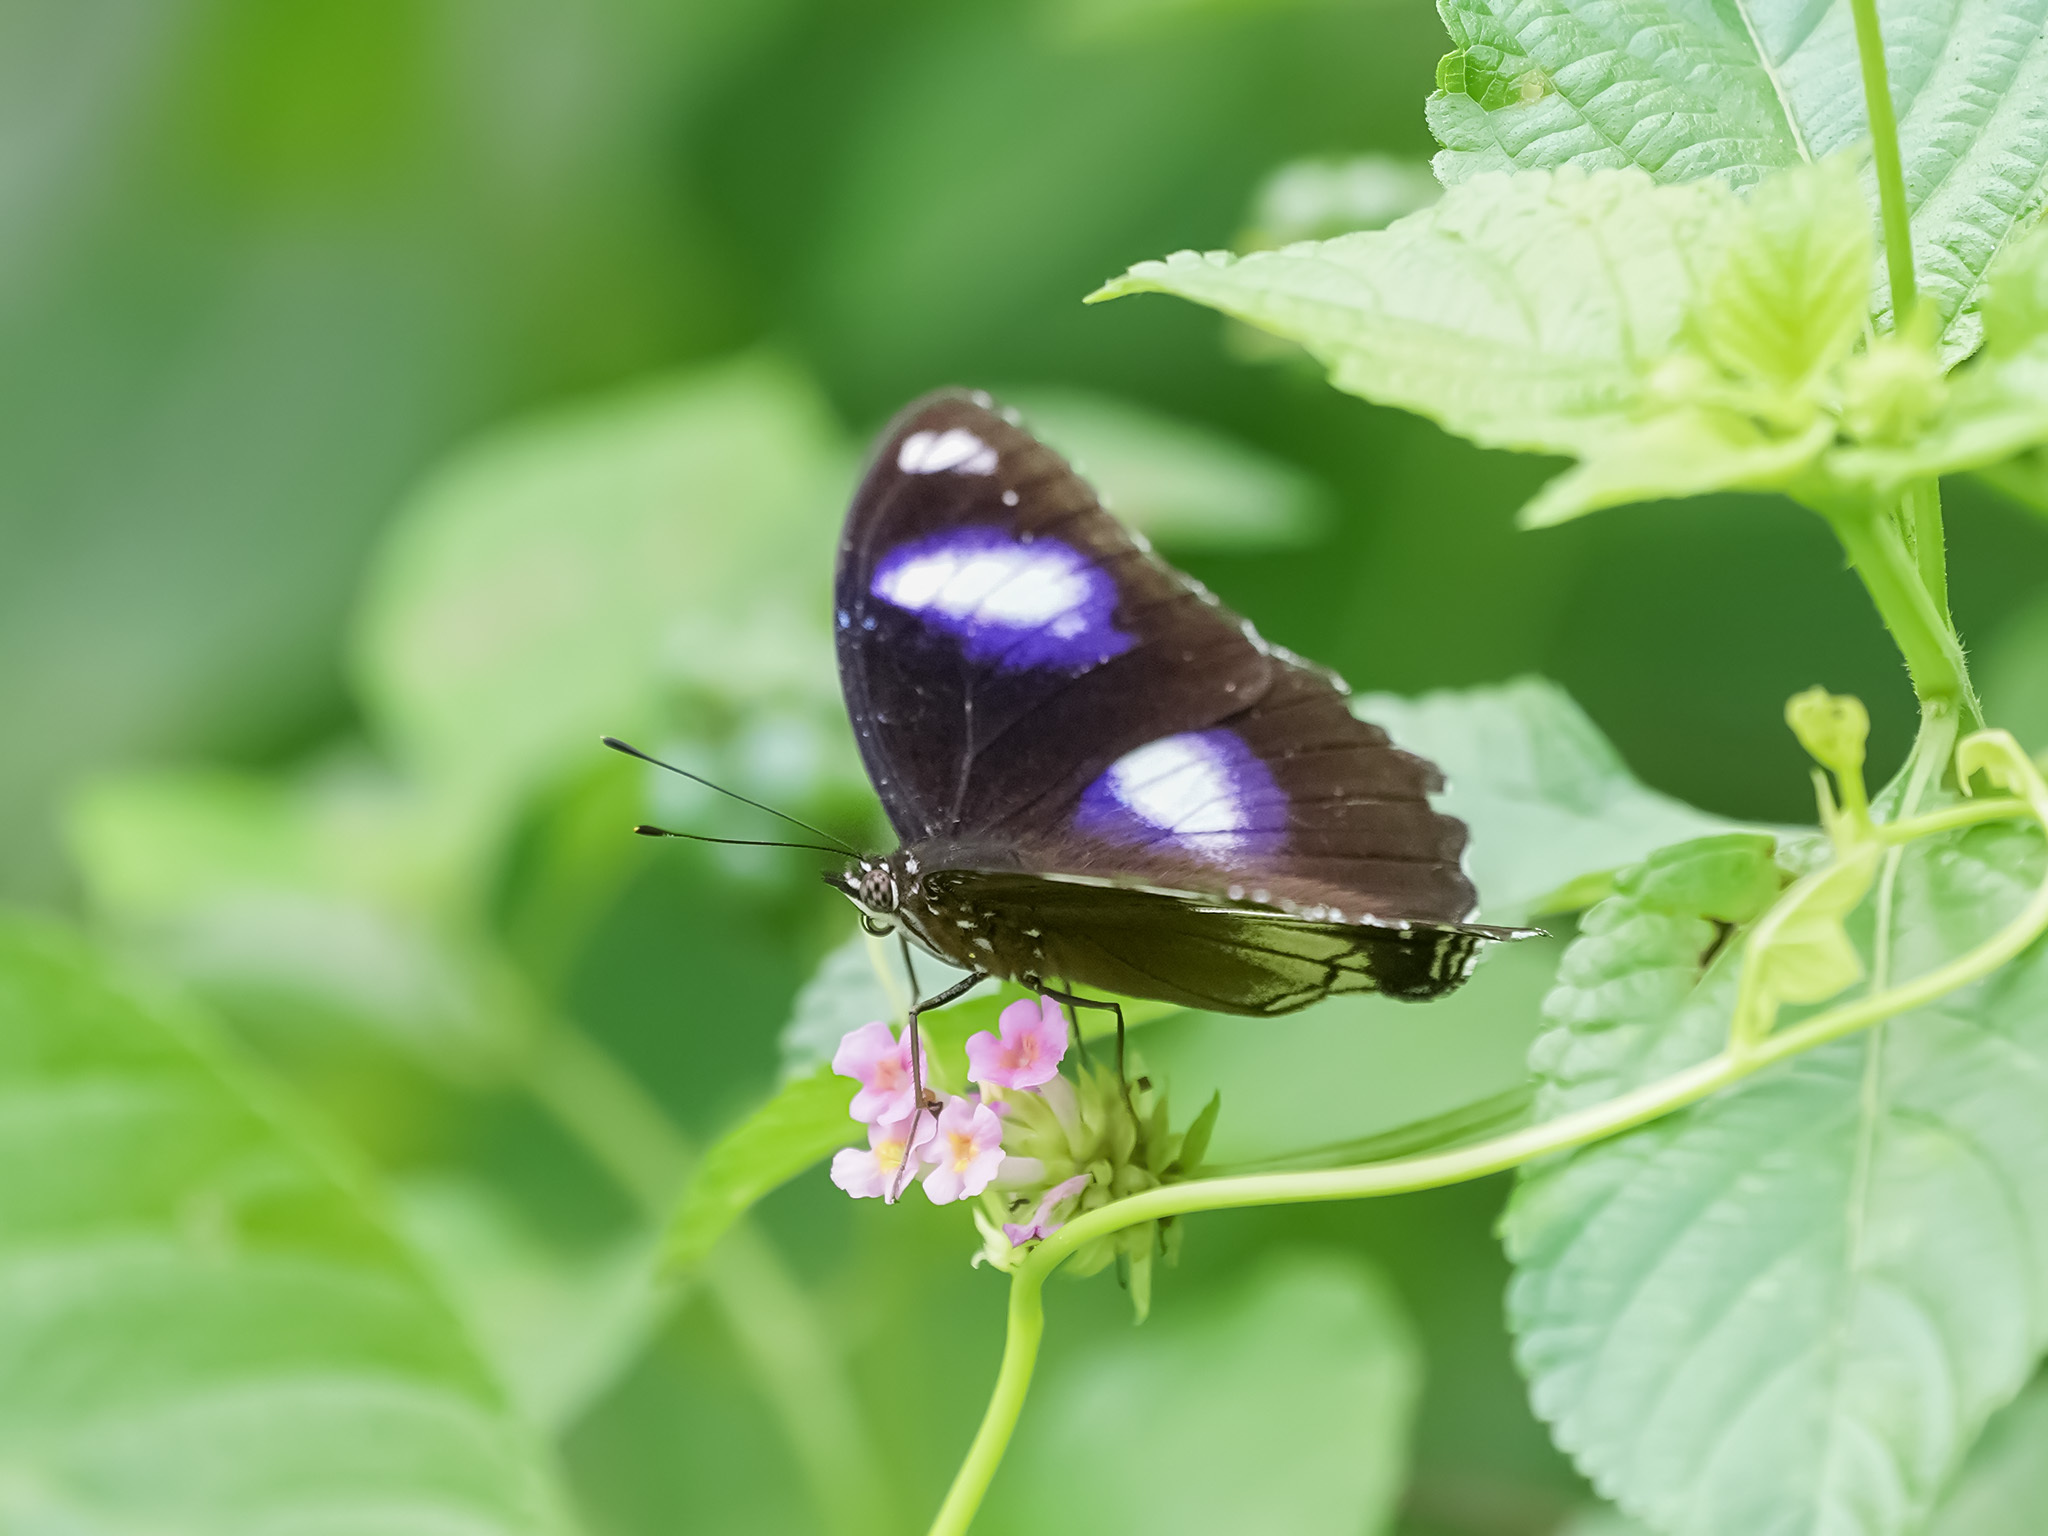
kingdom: Animalia
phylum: Arthropoda
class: Insecta
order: Lepidoptera
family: Nymphalidae
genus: Hypolimnas
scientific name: Hypolimnas bolina
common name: Great eggfly
